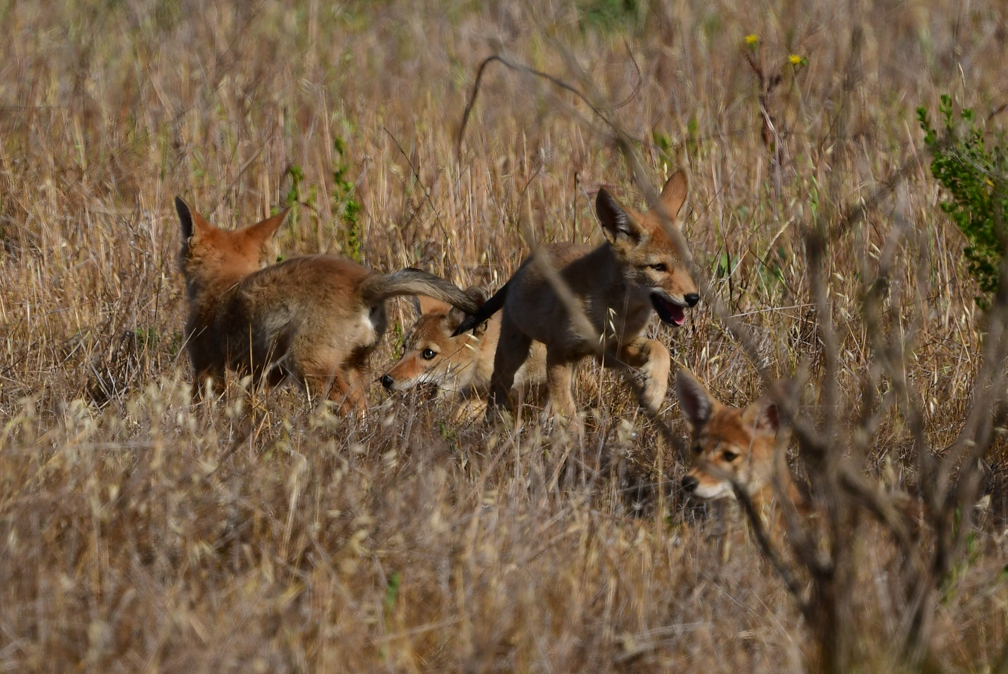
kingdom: Animalia
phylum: Chordata
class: Mammalia
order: Carnivora
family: Canidae
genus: Canis
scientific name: Canis latrans
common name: Coyote
